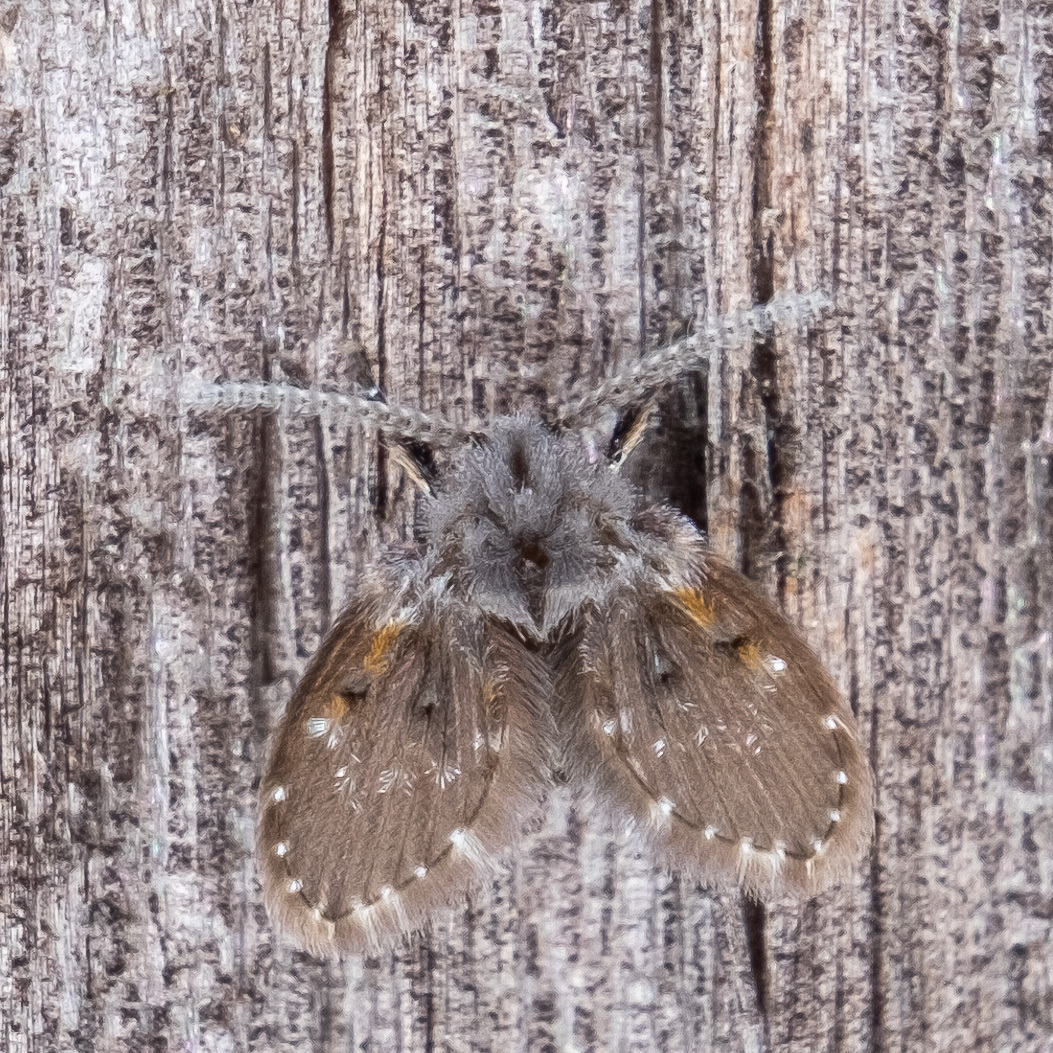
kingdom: Animalia
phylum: Arthropoda
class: Insecta
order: Diptera
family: Psychodidae
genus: Clogmia
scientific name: Clogmia albipunctatus
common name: White-spotted moth fly
